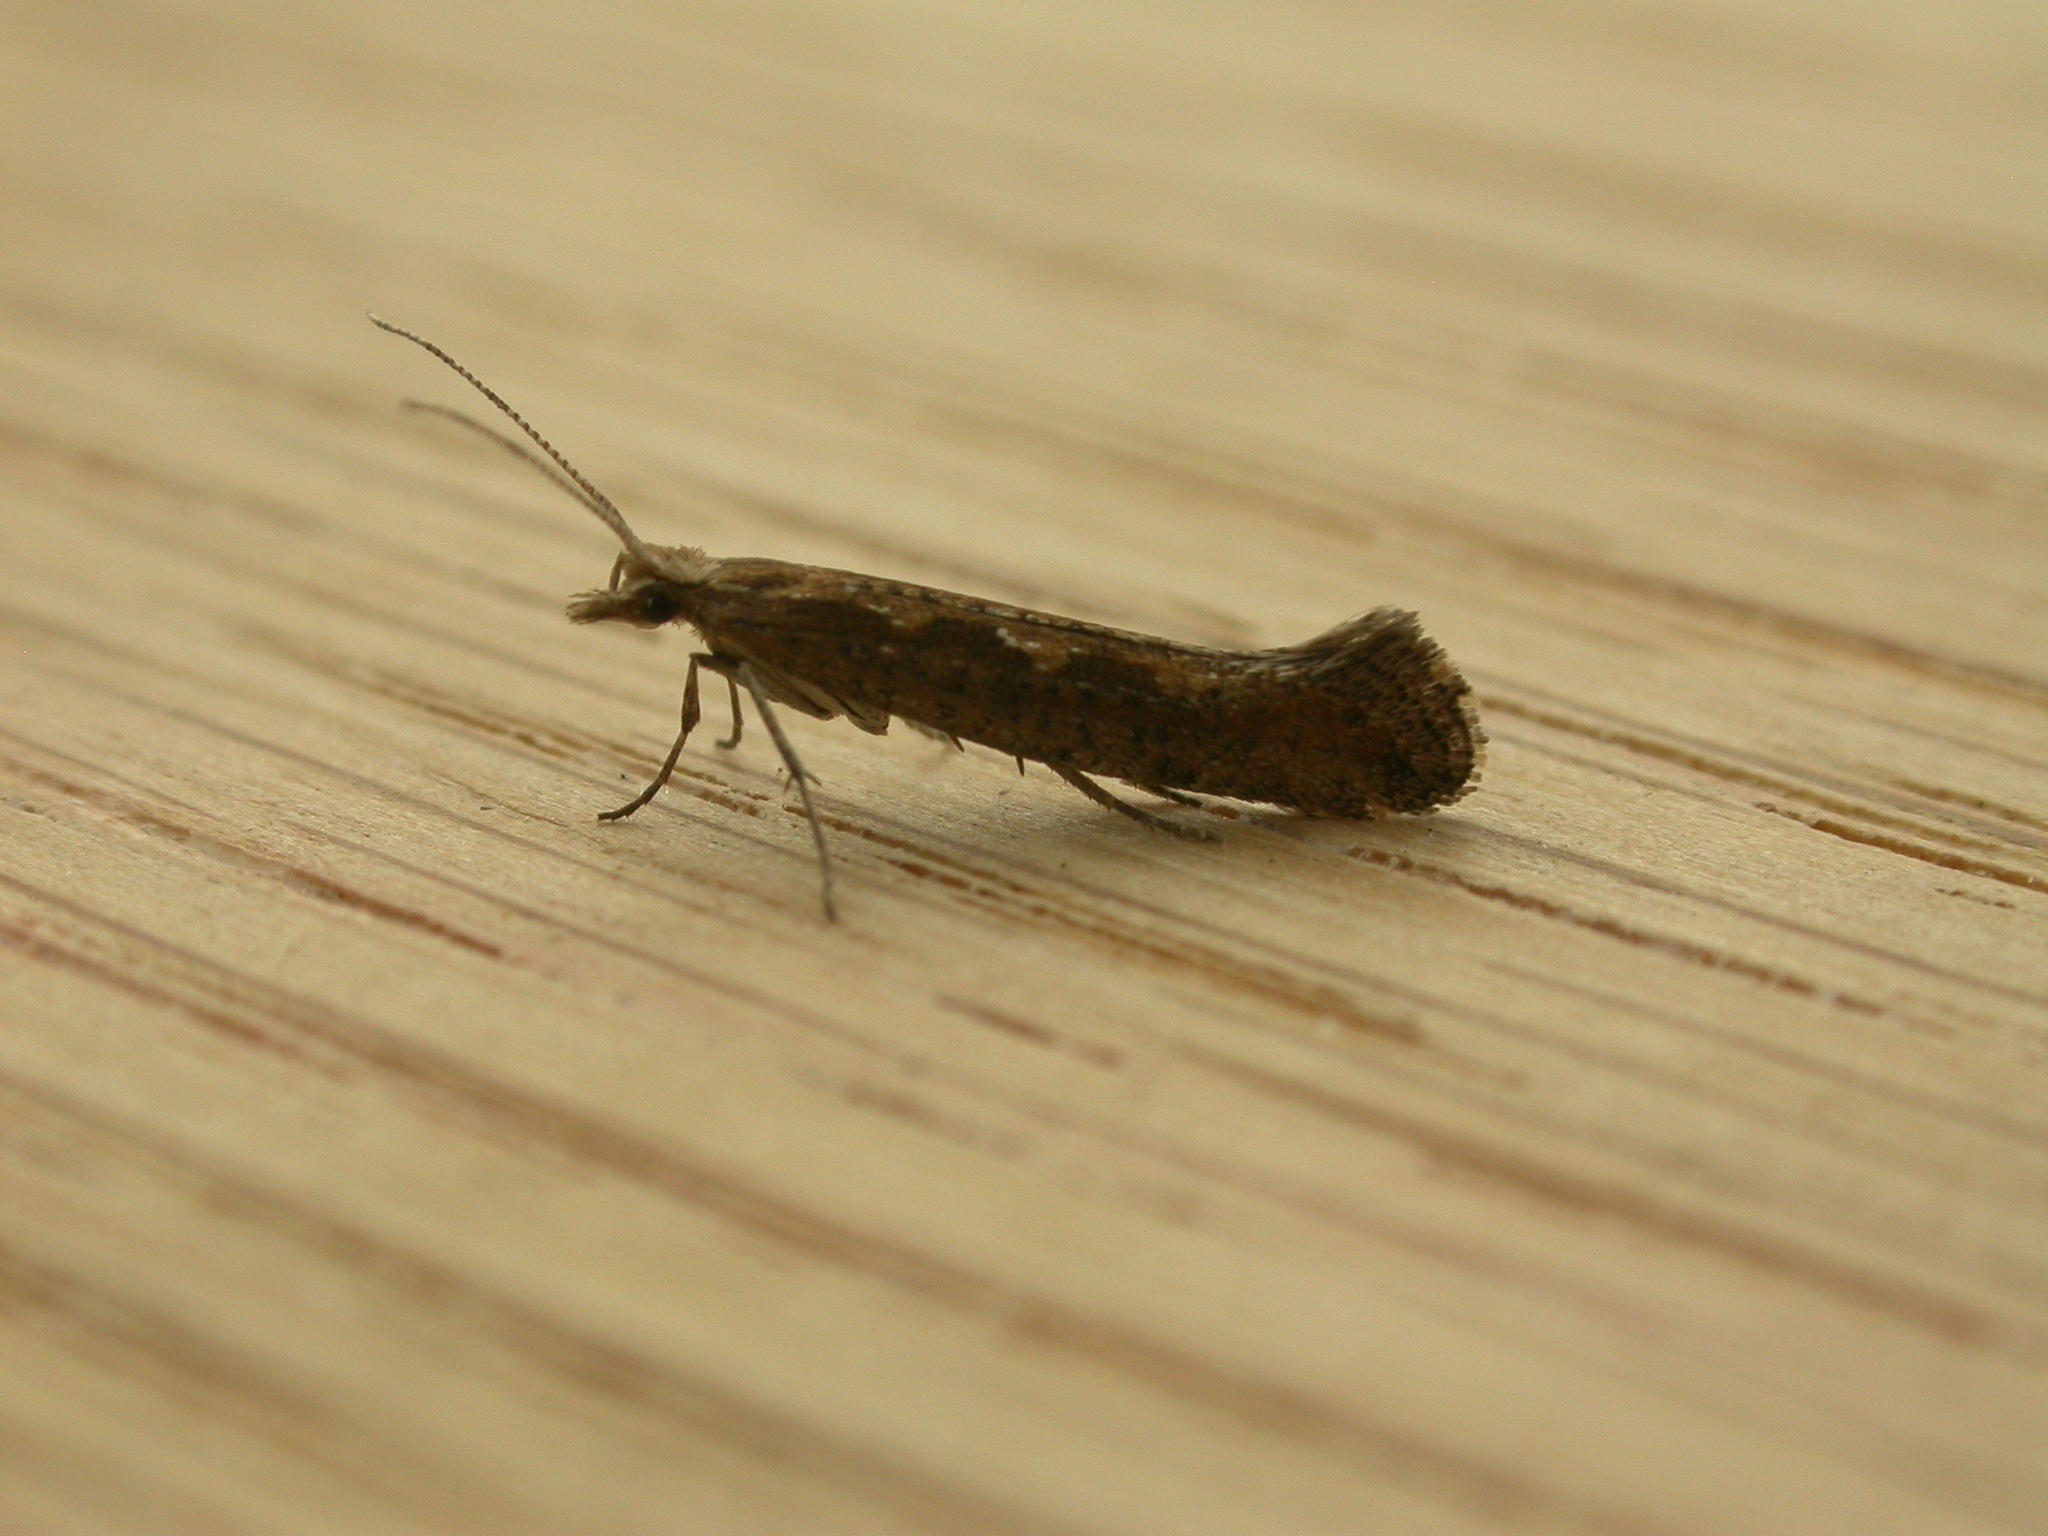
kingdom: Animalia
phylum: Arthropoda
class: Insecta
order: Lepidoptera
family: Plutellidae
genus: Plutella
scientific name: Plutella xylostella
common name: Diamond-back moth
